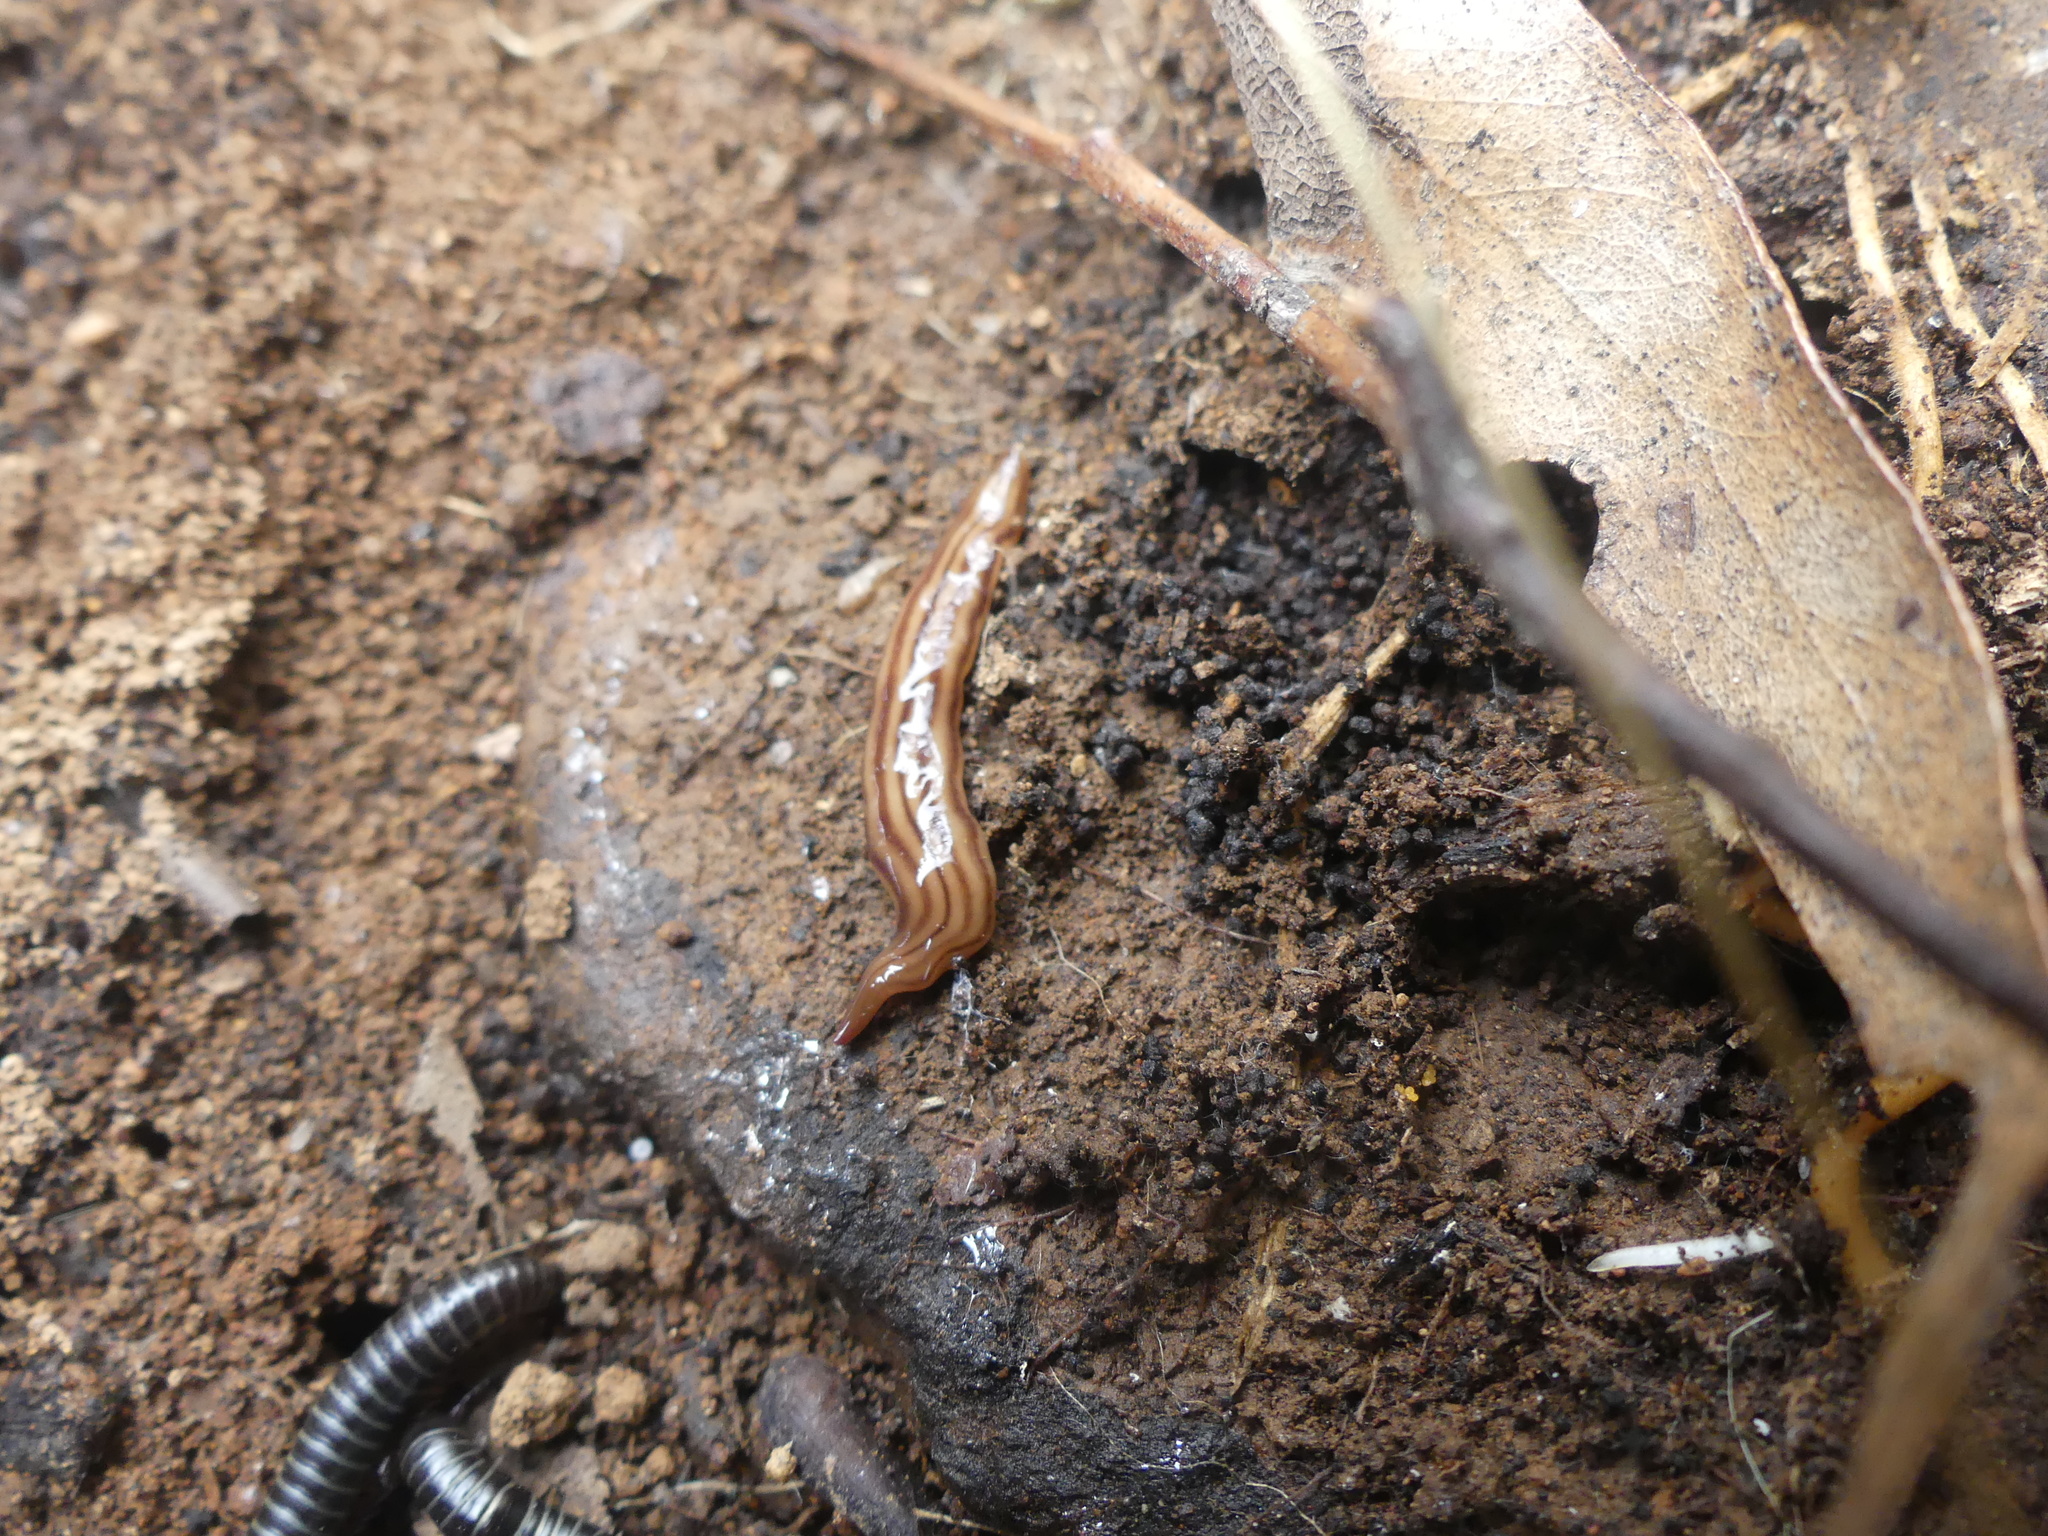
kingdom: Animalia
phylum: Platyhelminthes
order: Tricladida
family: Geoplanidae
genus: Tasmanoplana
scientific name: Tasmanoplana tasmaniana
